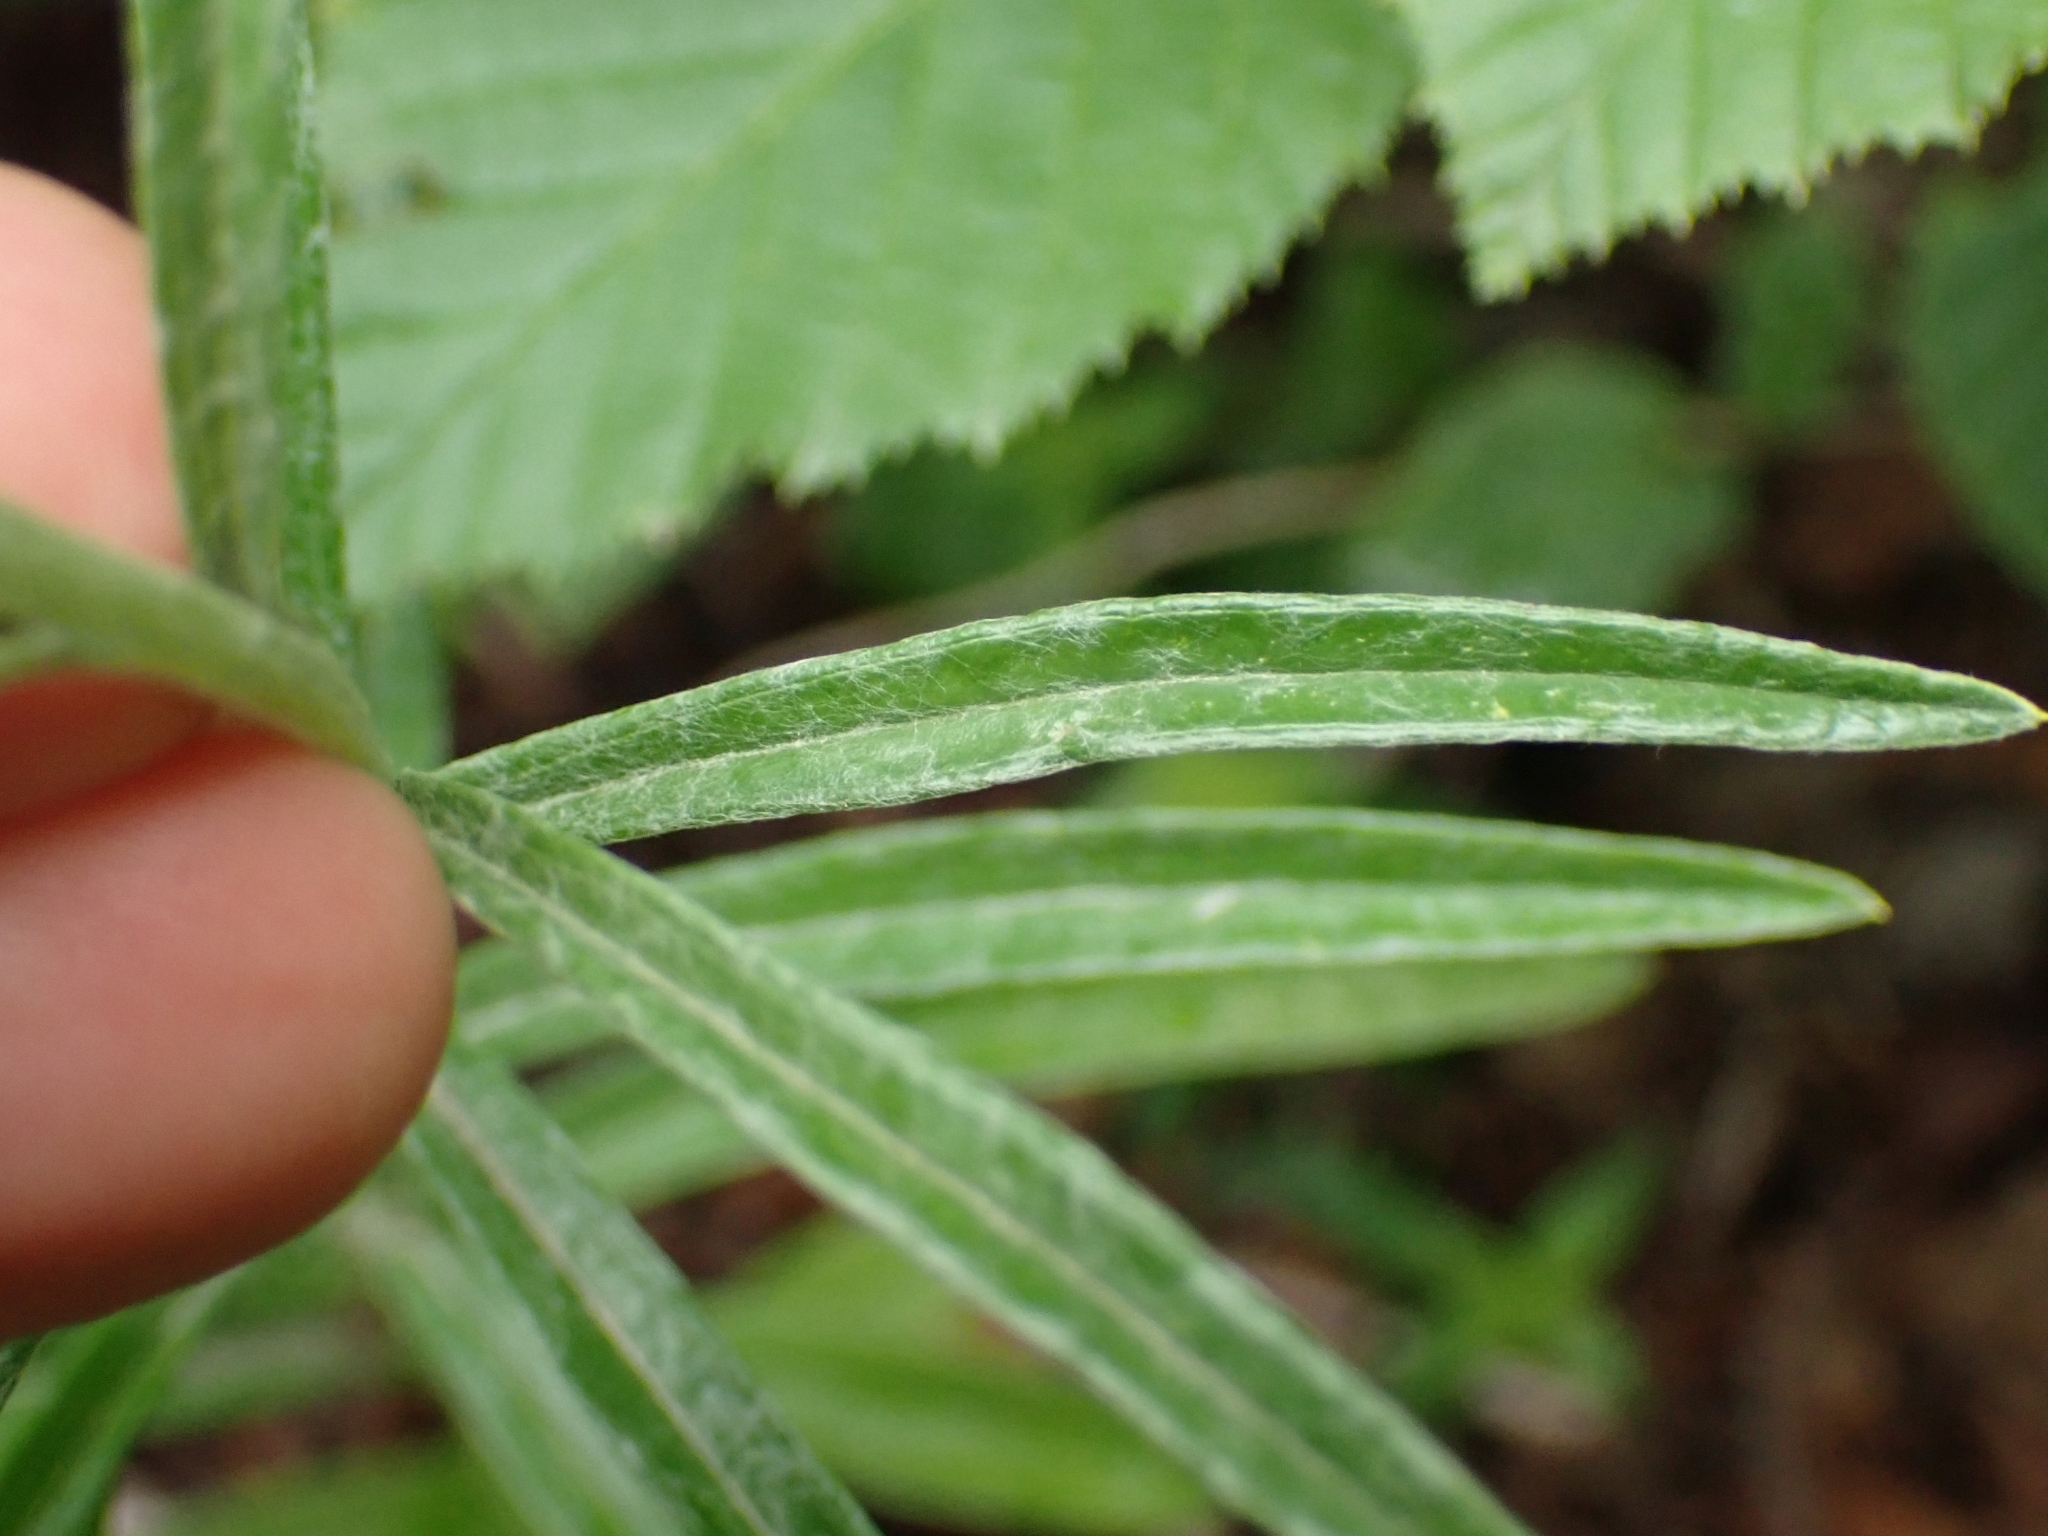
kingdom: Plantae
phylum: Tracheophyta
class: Magnoliopsida
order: Asterales
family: Asteraceae
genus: Anaphalis
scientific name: Anaphalis margaritacea
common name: Pearly everlasting
